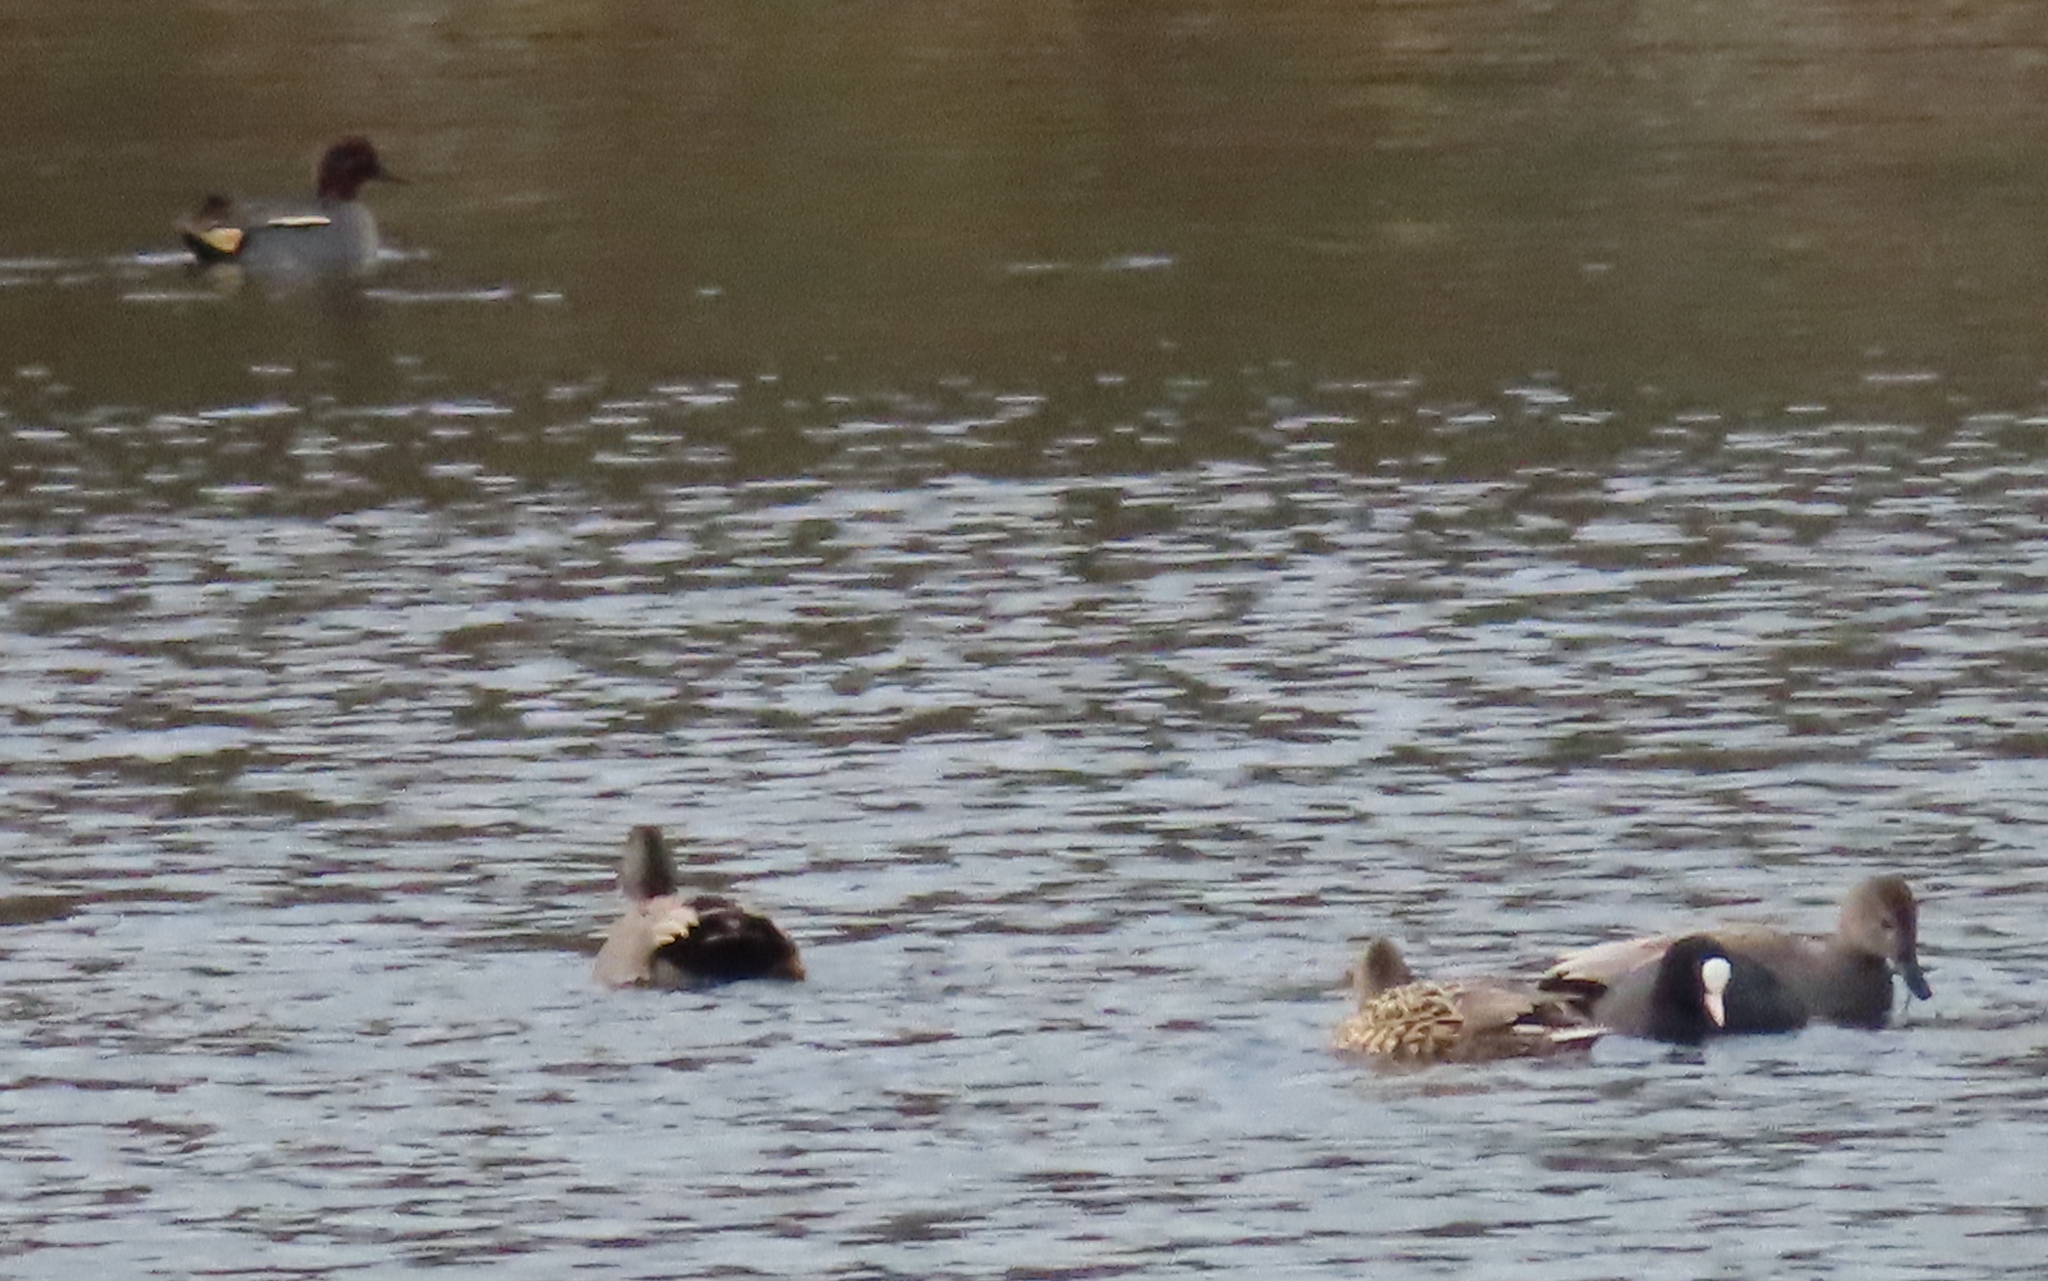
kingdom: Animalia
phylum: Chordata
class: Aves
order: Anseriformes
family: Anatidae
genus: Anas
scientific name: Anas crecca
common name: Eurasian teal
